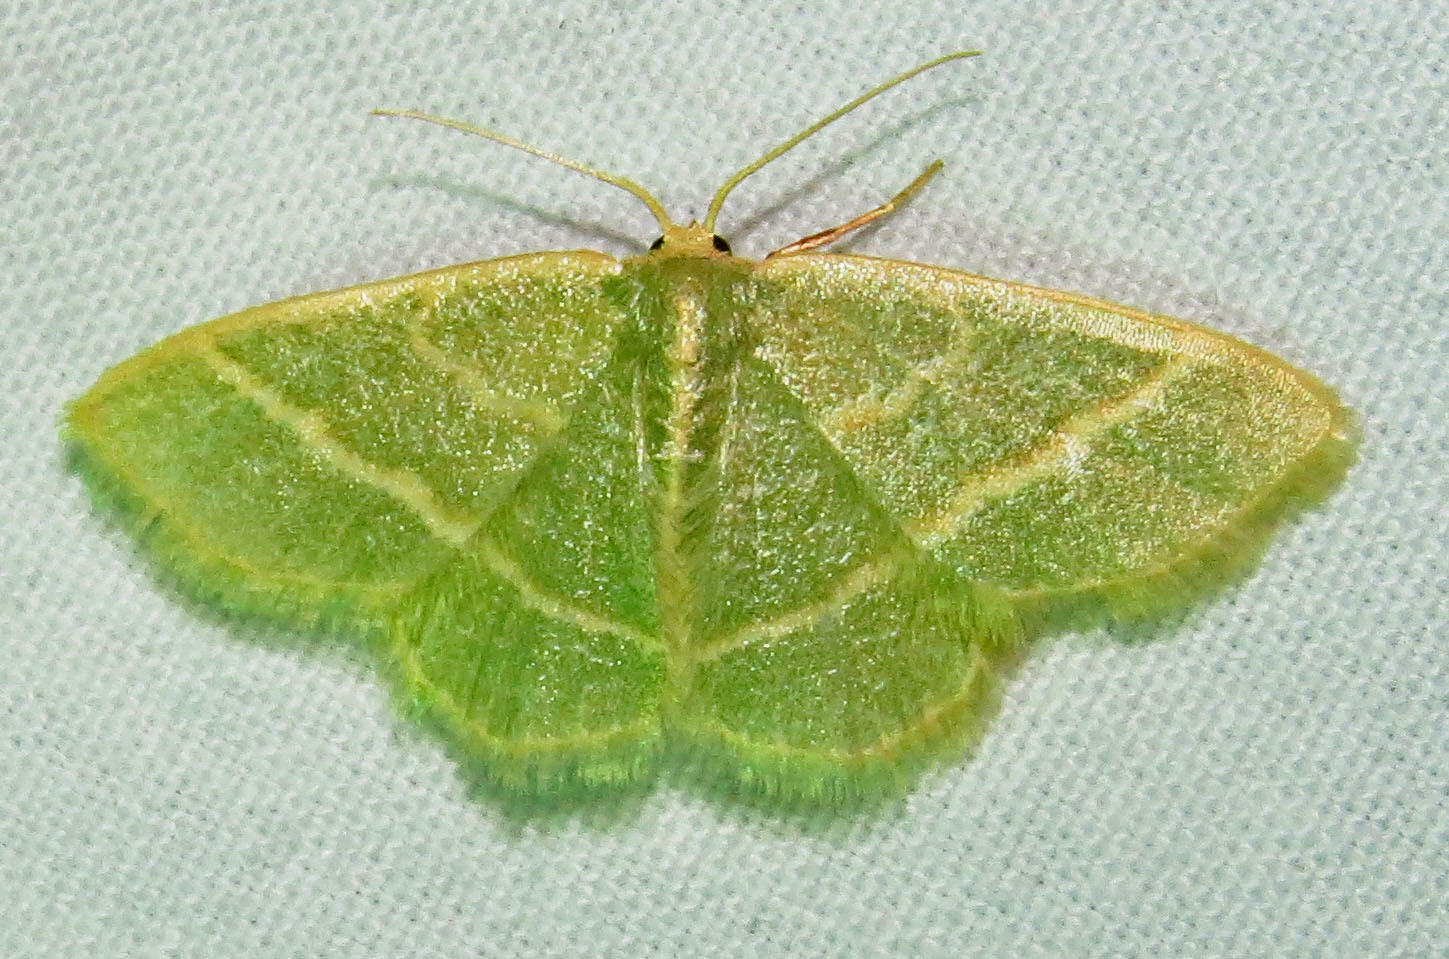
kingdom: Animalia
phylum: Arthropoda
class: Insecta
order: Lepidoptera
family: Geometridae
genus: Chlorochlamys
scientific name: Chlorochlamys chloroleucaria
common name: Blackberry looper
